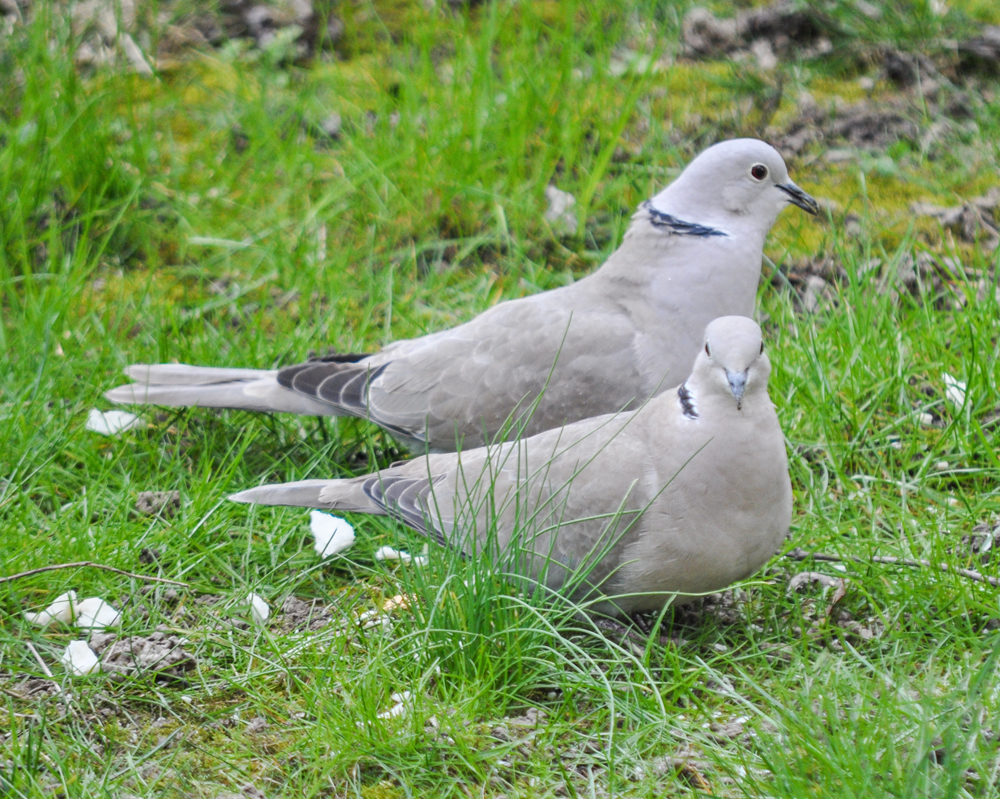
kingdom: Animalia
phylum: Chordata
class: Aves
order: Columbiformes
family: Columbidae
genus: Streptopelia
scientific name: Streptopelia decaocto
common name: Eurasian collared dove
